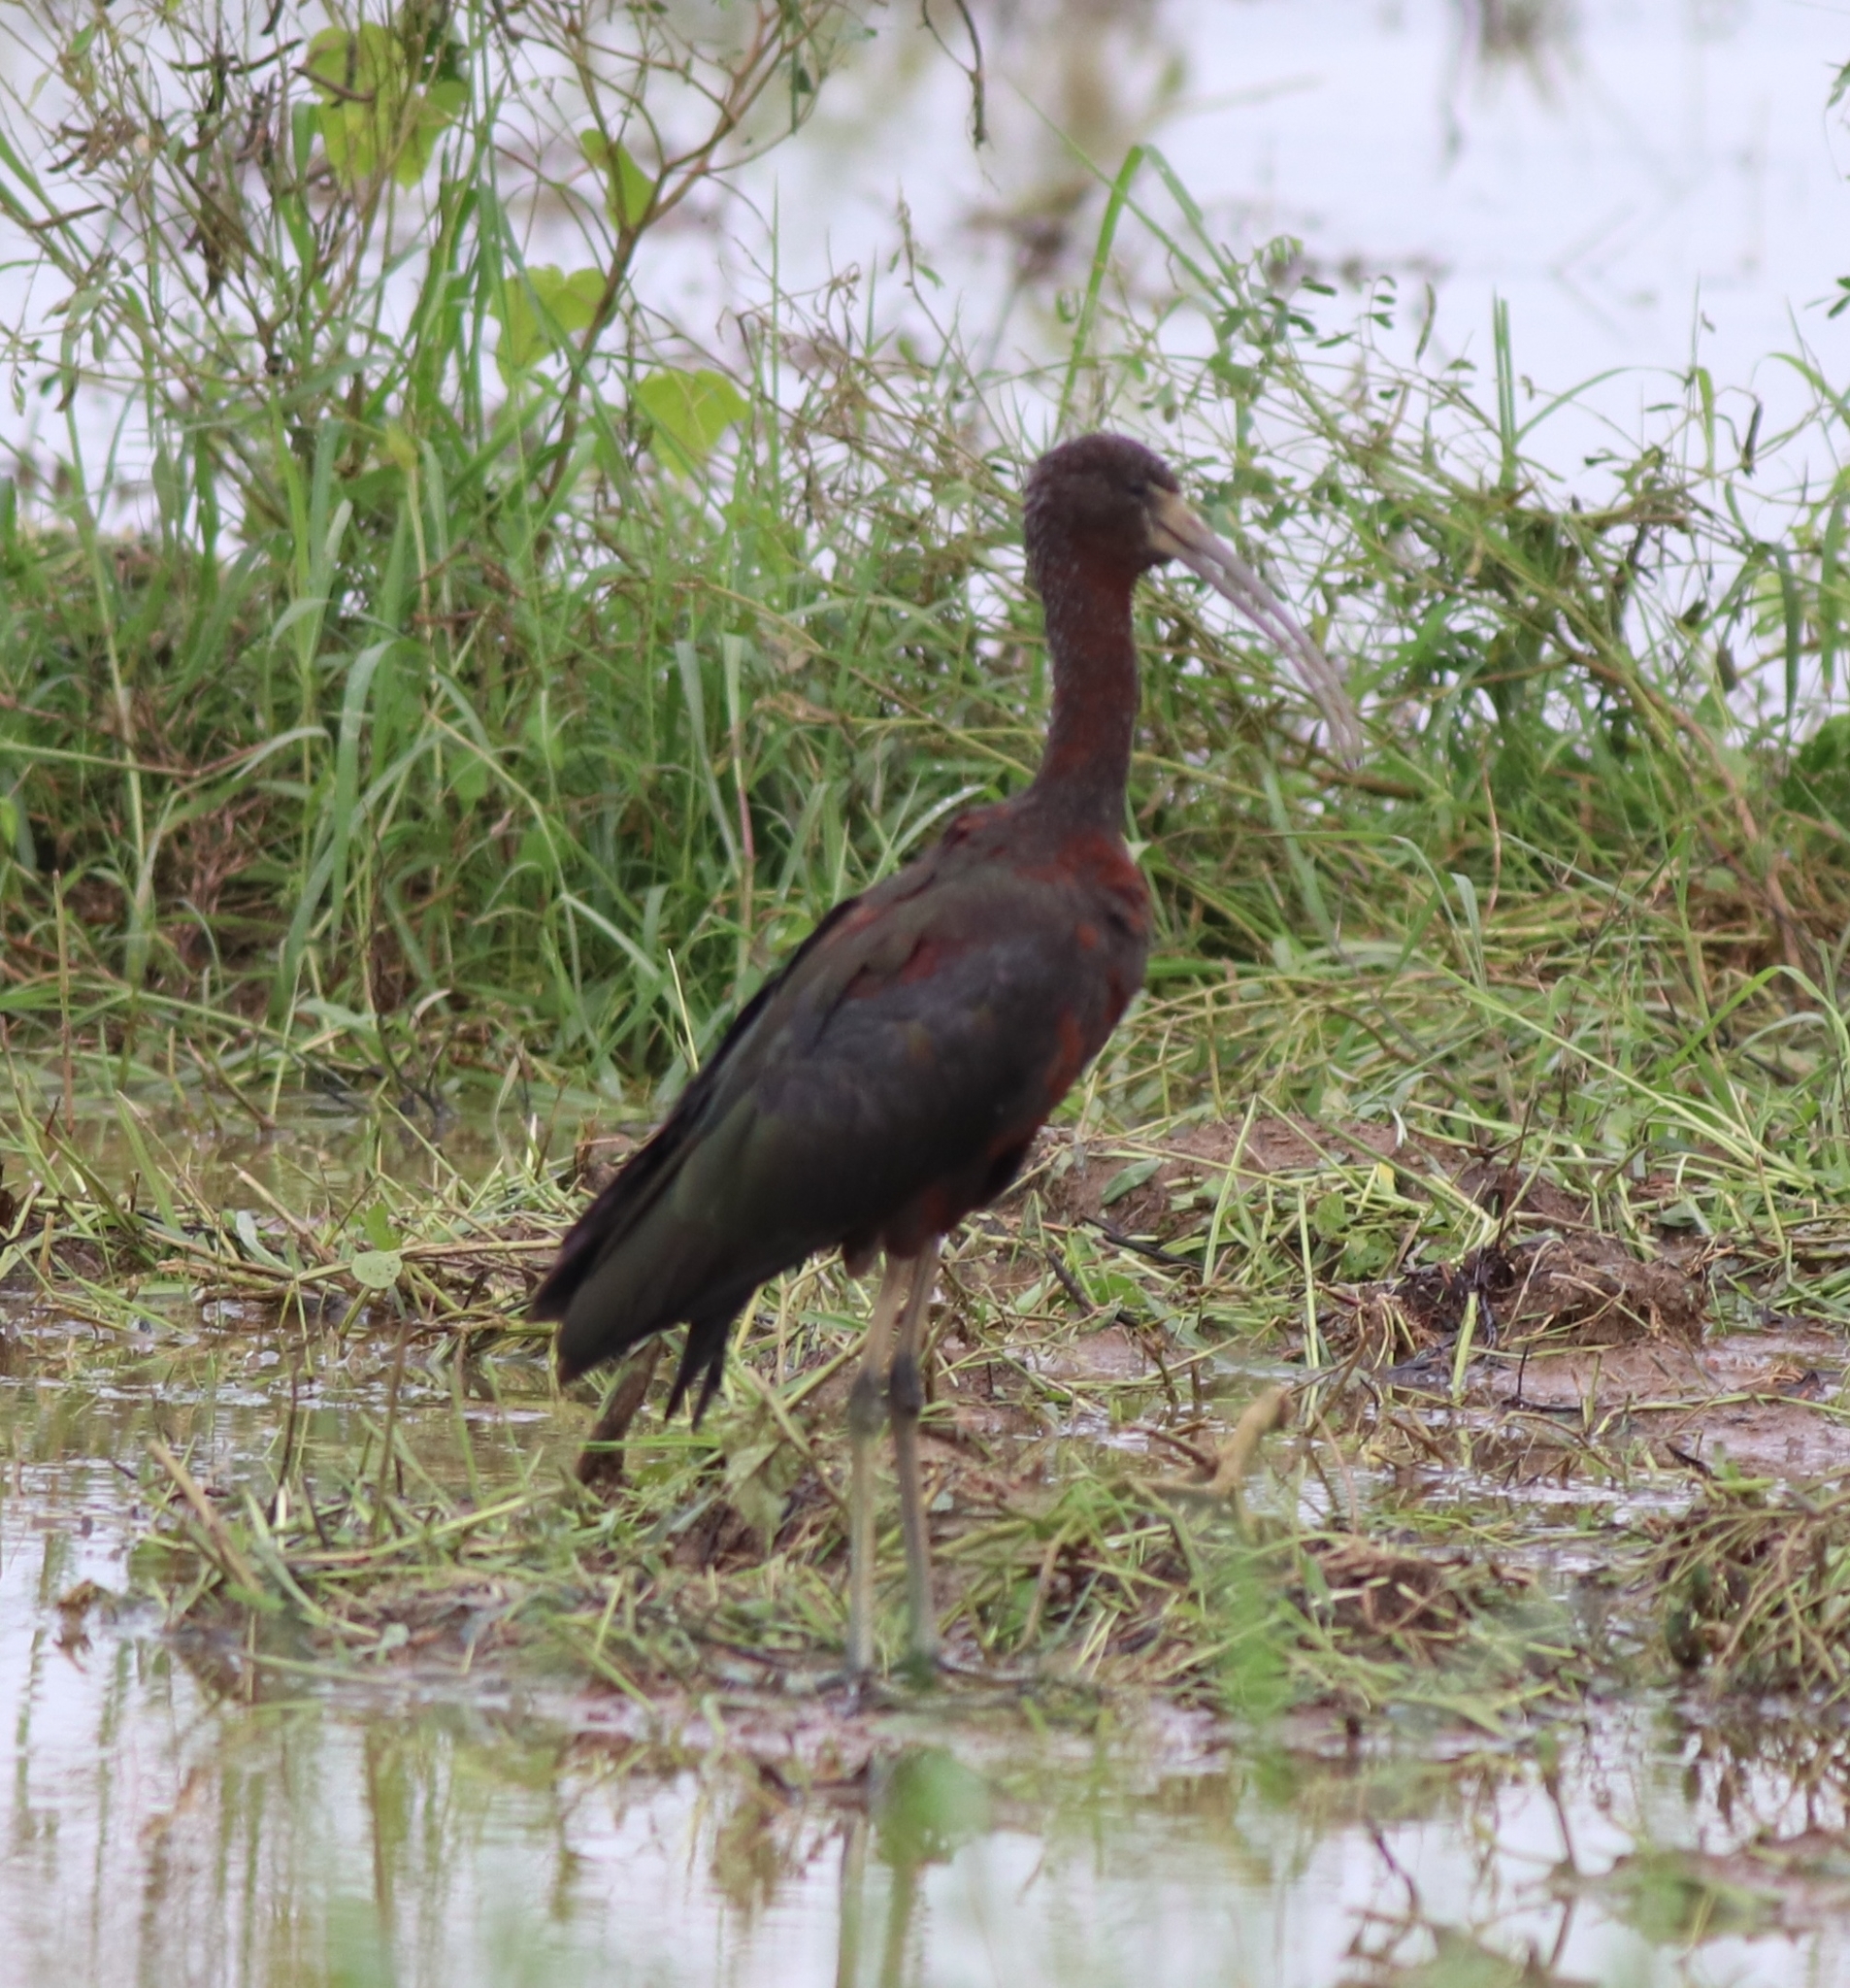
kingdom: Animalia
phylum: Chordata
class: Aves
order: Pelecaniformes
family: Threskiornithidae
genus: Plegadis
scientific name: Plegadis falcinellus
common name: Glossy ibis
